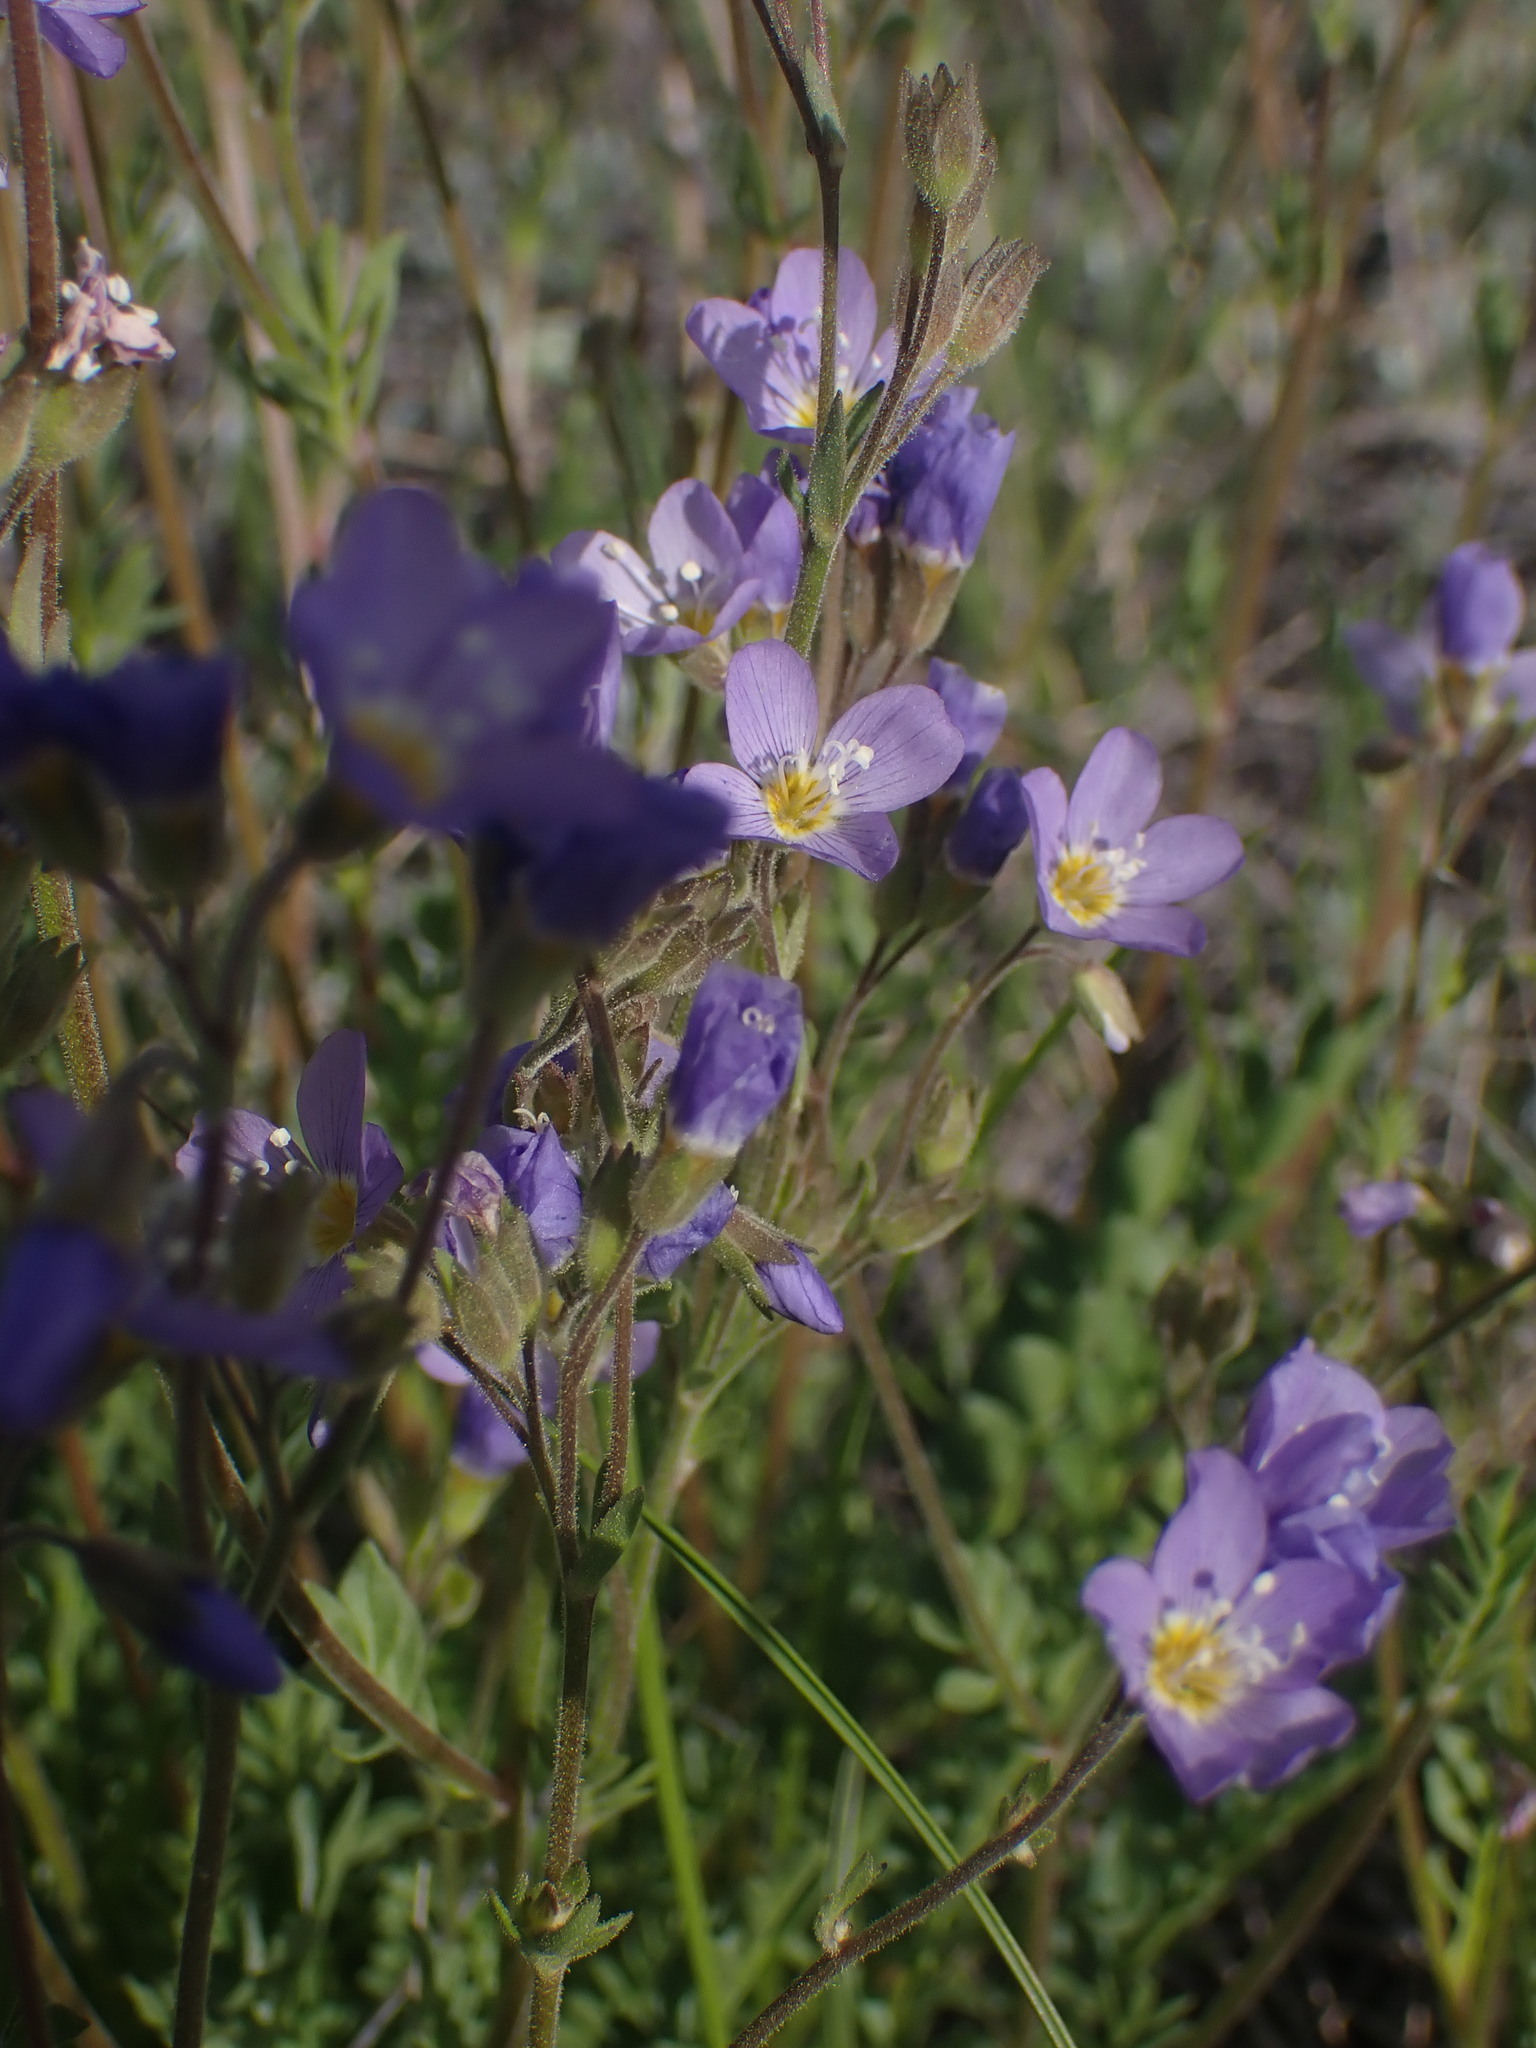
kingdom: Plantae
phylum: Tracheophyta
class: Magnoliopsida
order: Ericales
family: Polemoniaceae
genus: Polemonium
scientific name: Polemonium pulcherrimum
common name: Short jacob's-ladder
